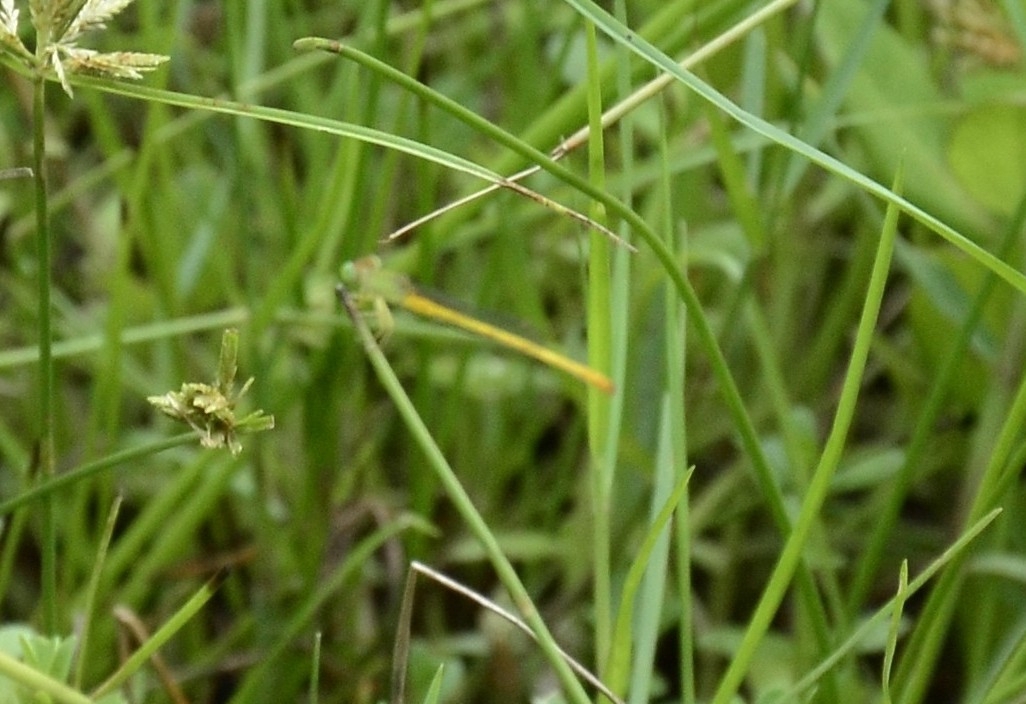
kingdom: Animalia
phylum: Arthropoda
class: Insecta
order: Odonata
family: Coenagrionidae
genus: Ceriagrion
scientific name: Ceriagrion coromandelianum
